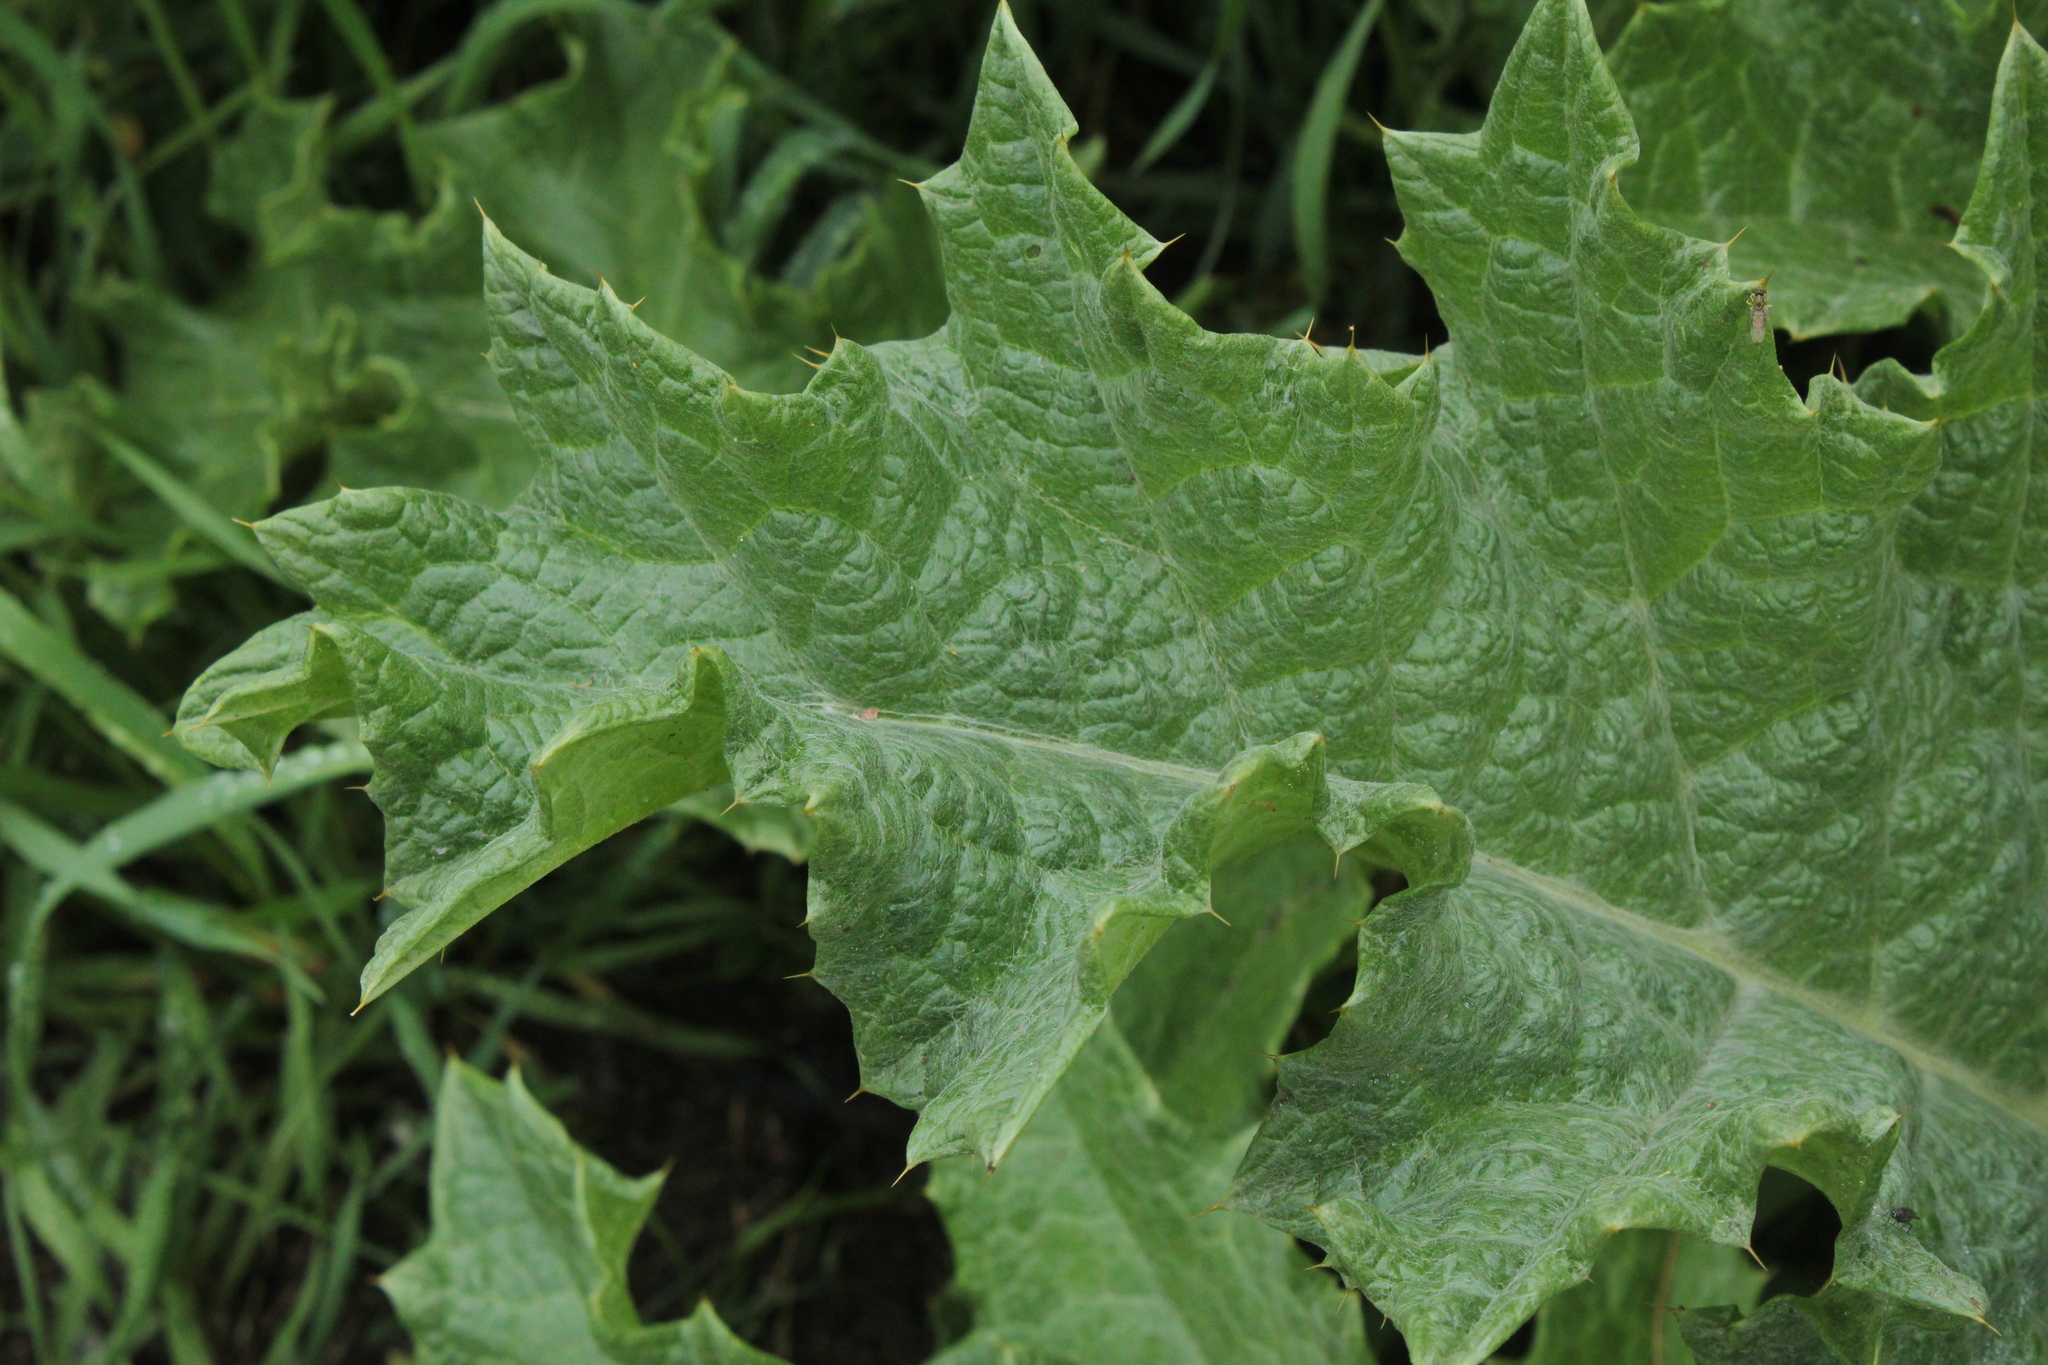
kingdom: Plantae
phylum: Tracheophyta
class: Magnoliopsida
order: Asterales
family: Asteraceae
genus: Onopordum
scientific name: Onopordum acanthium
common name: Scotch thistle
